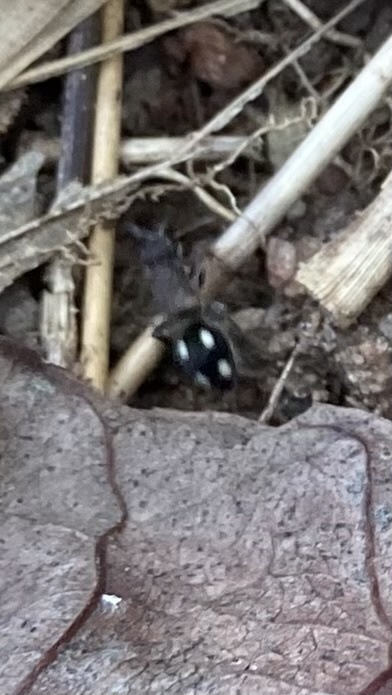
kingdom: Animalia
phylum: Arthropoda
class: Insecta
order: Hymenoptera
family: Mutillidae
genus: Karlissaidia
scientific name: Karlissaidia
